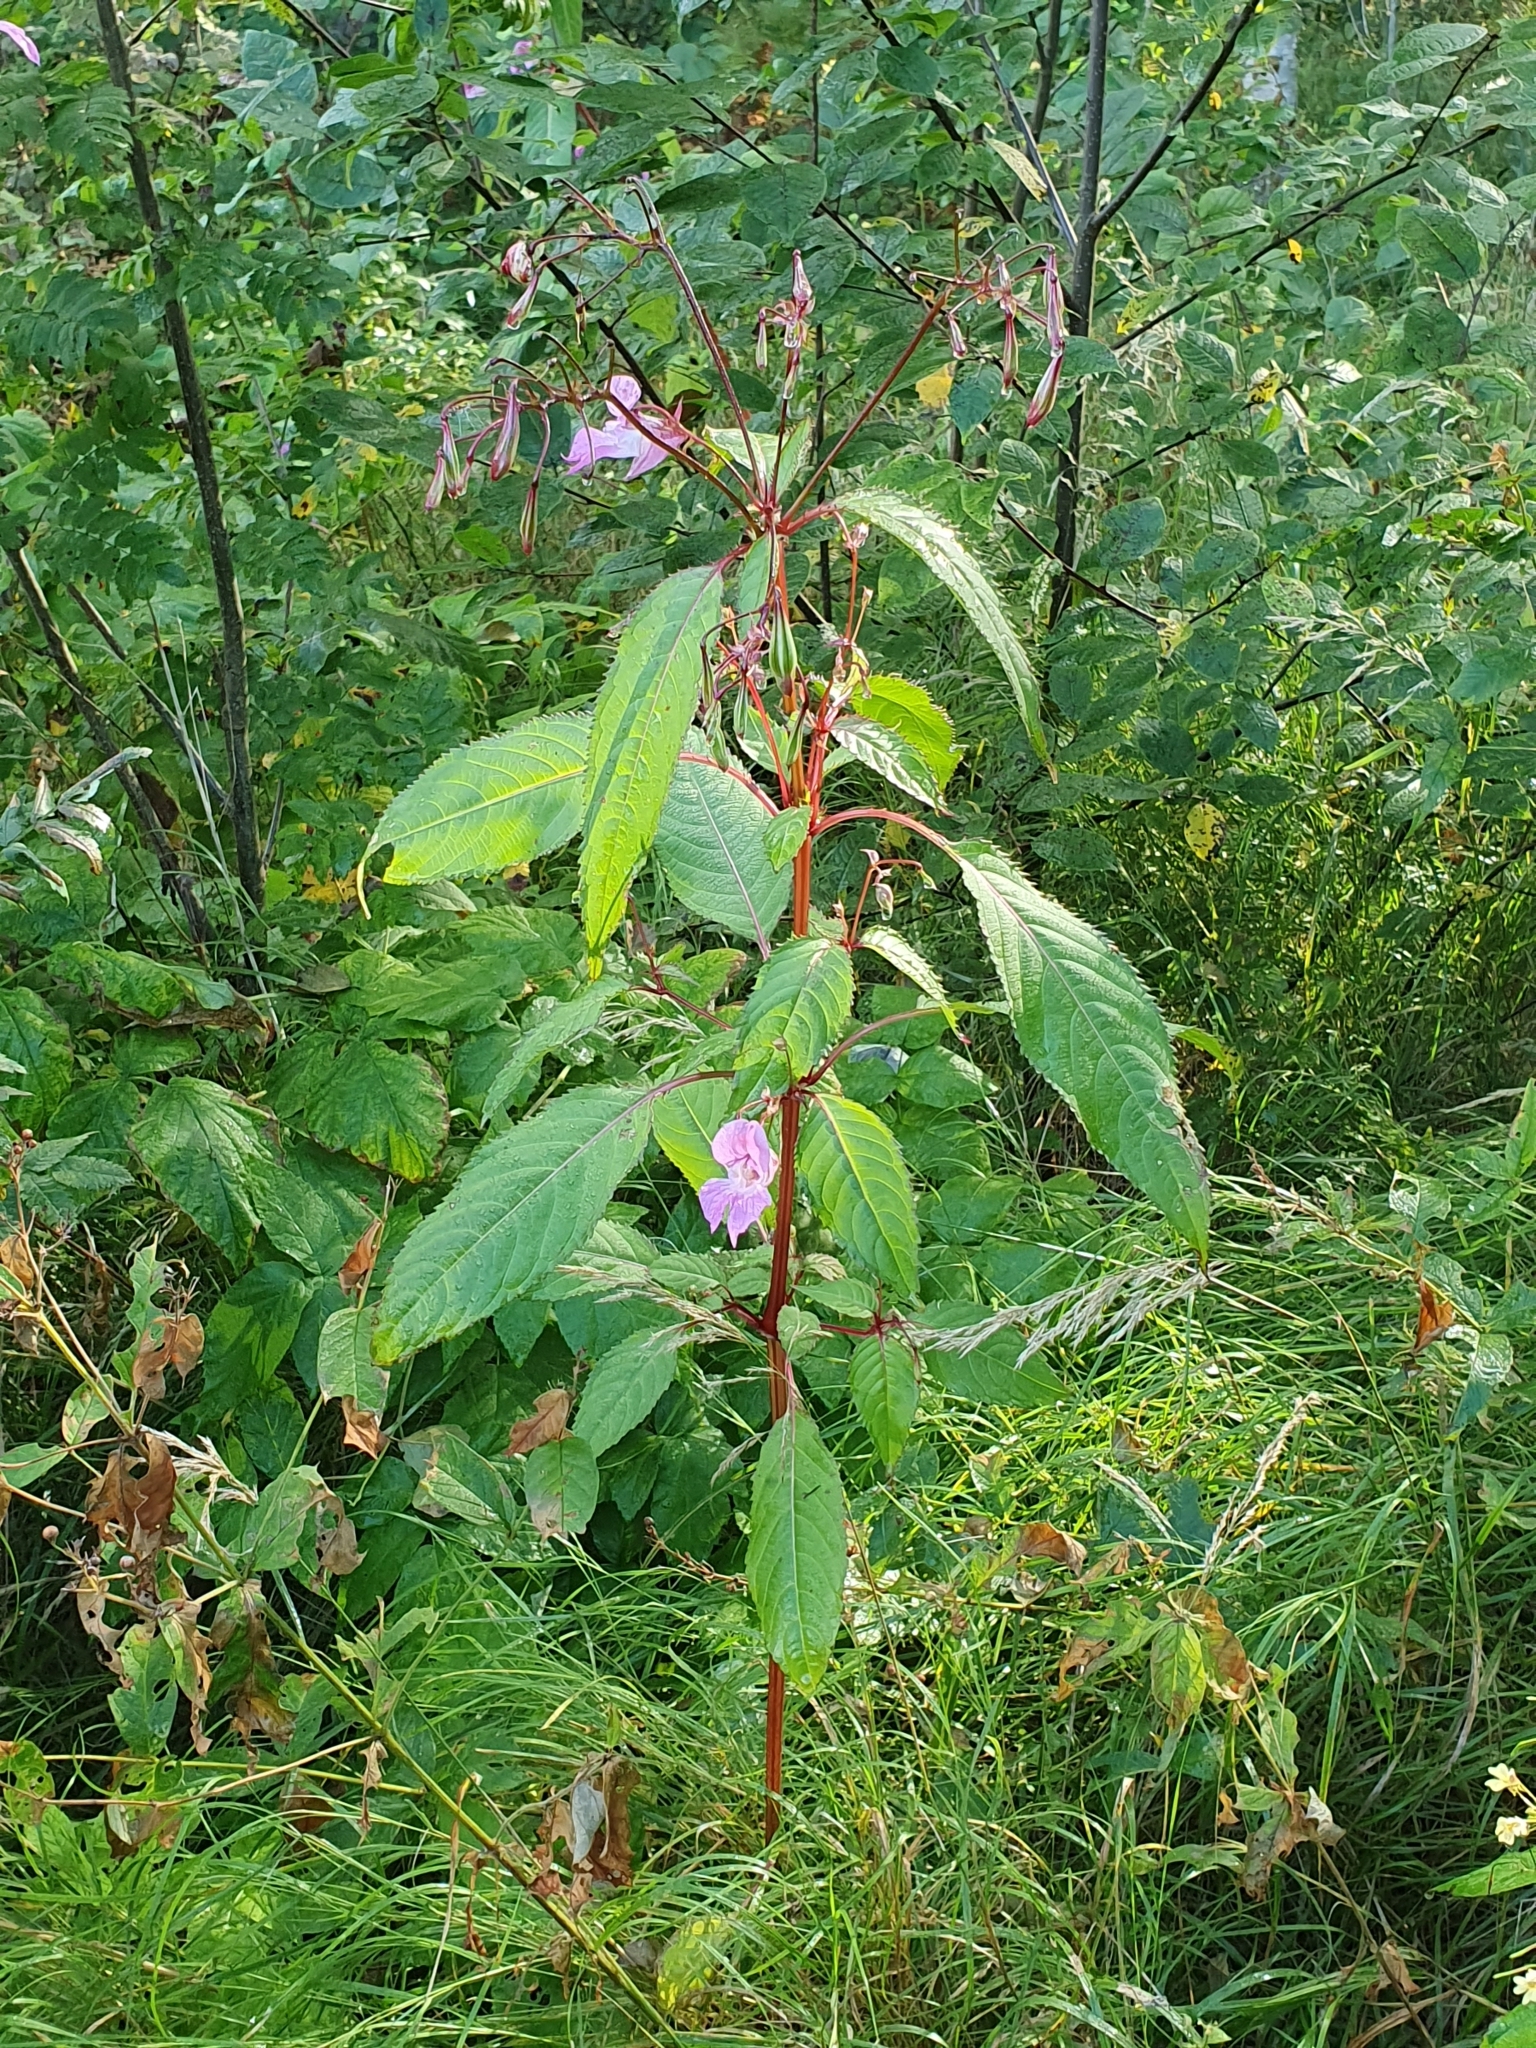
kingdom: Plantae
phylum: Tracheophyta
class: Magnoliopsida
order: Ericales
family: Balsaminaceae
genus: Impatiens
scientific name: Impatiens glandulifera
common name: Himalayan balsam
